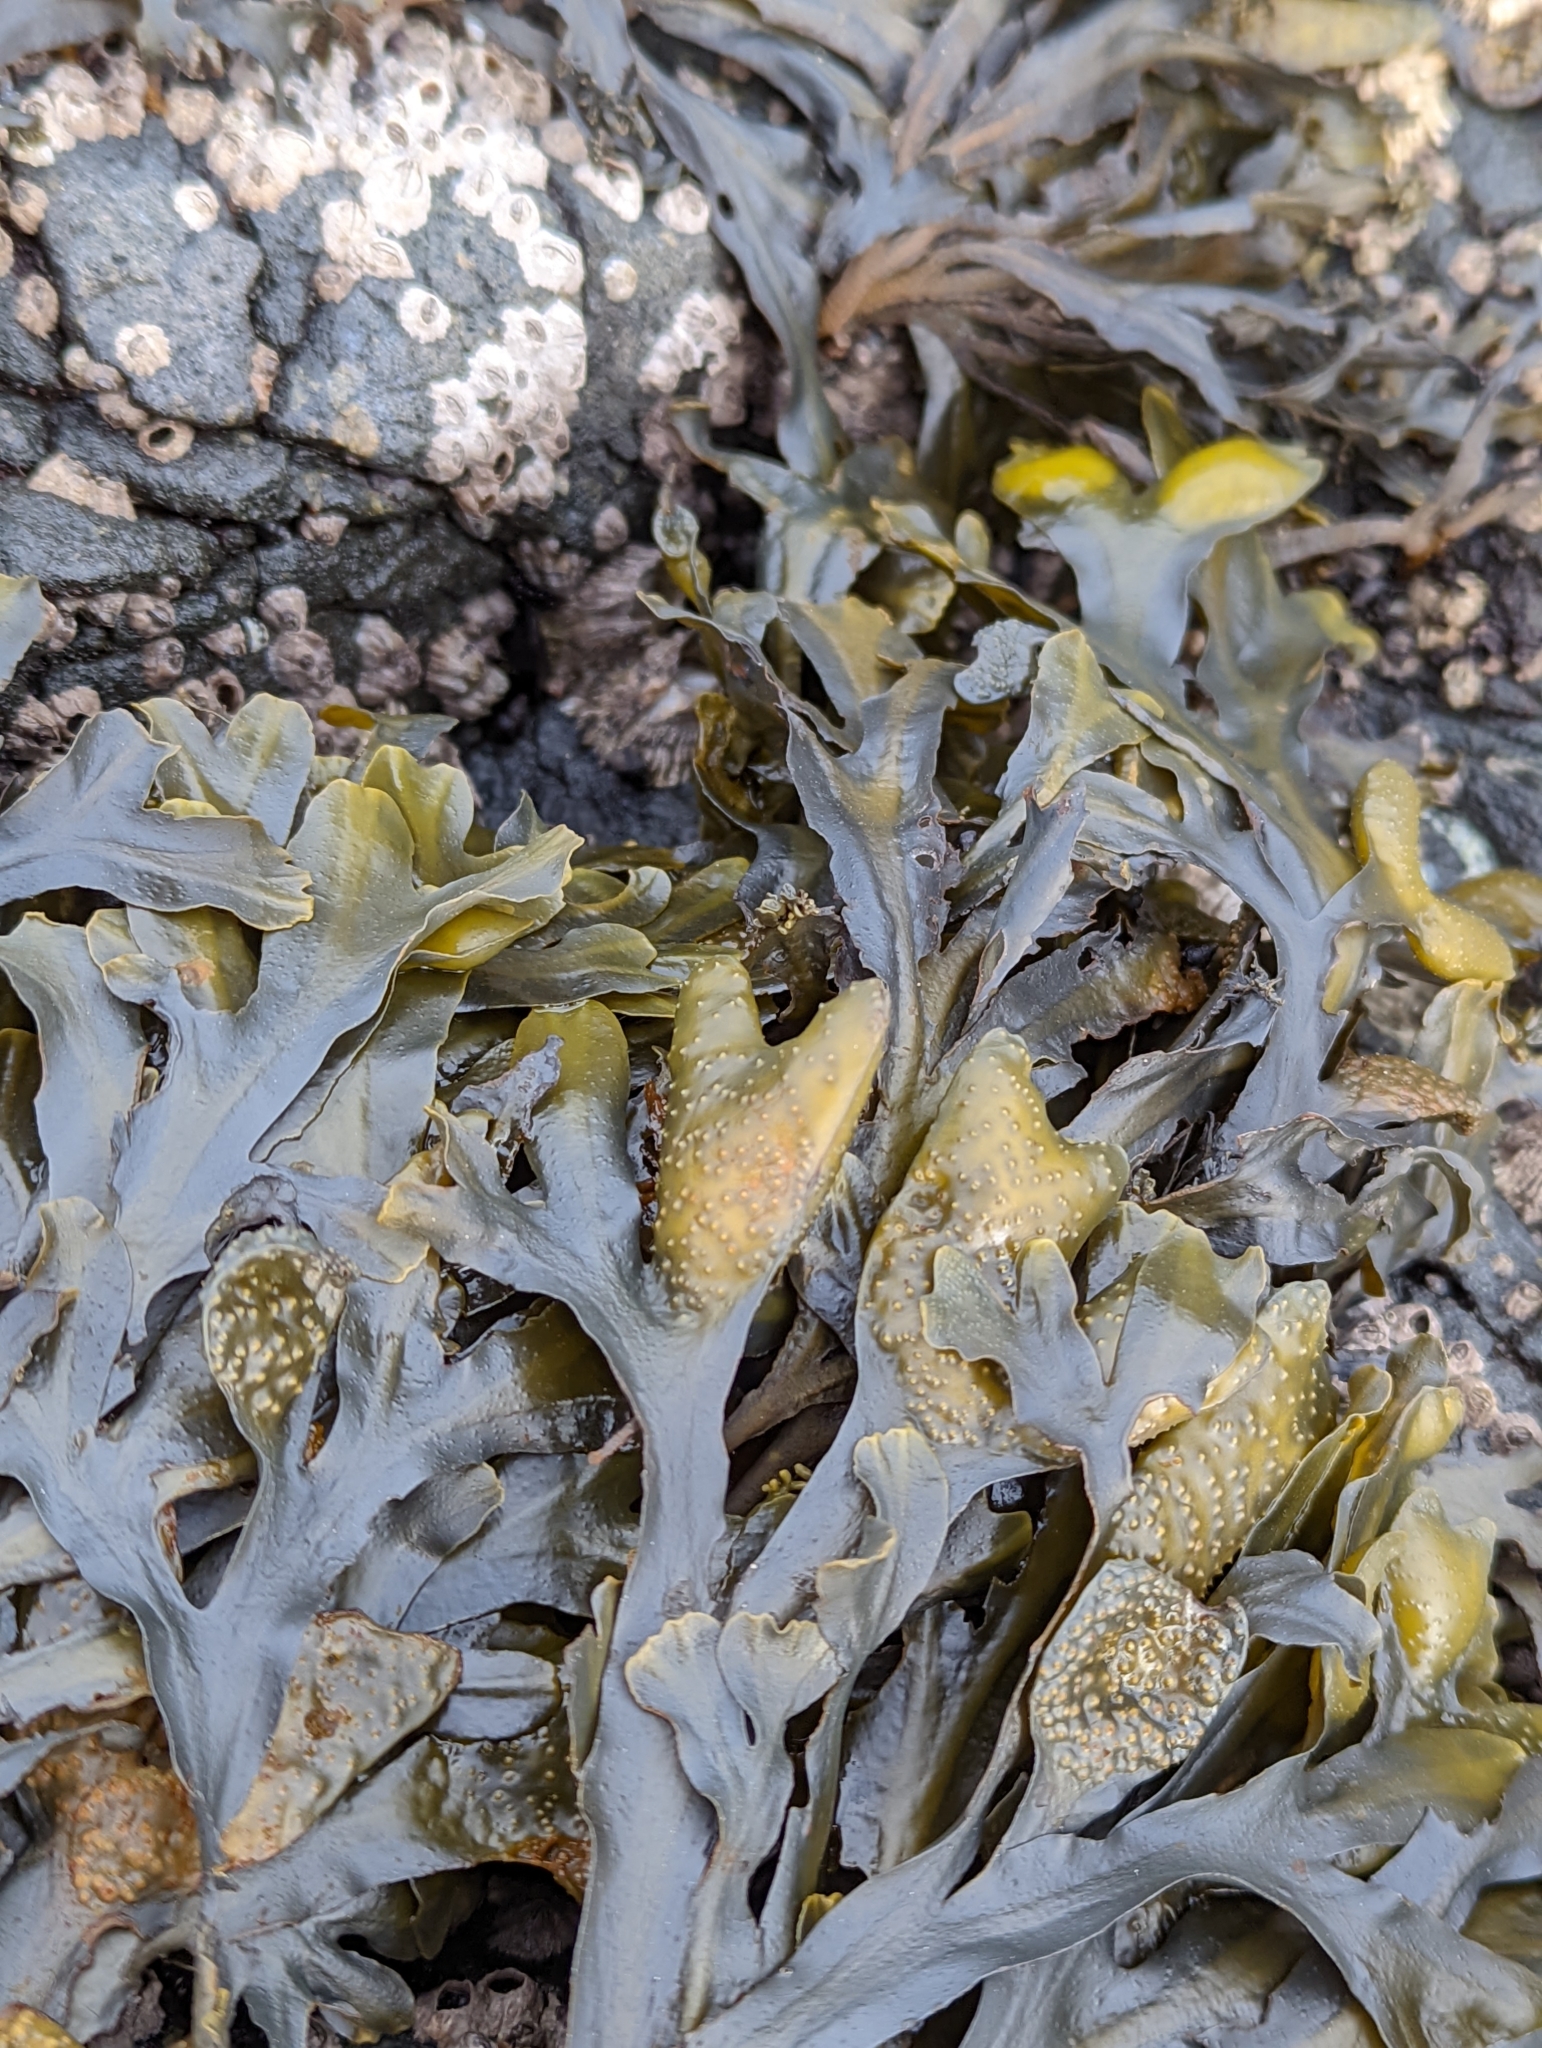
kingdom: Chromista
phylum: Ochrophyta
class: Phaeophyceae
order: Fucales
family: Fucaceae
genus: Fucus
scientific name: Fucus distichus
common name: Rockweed
